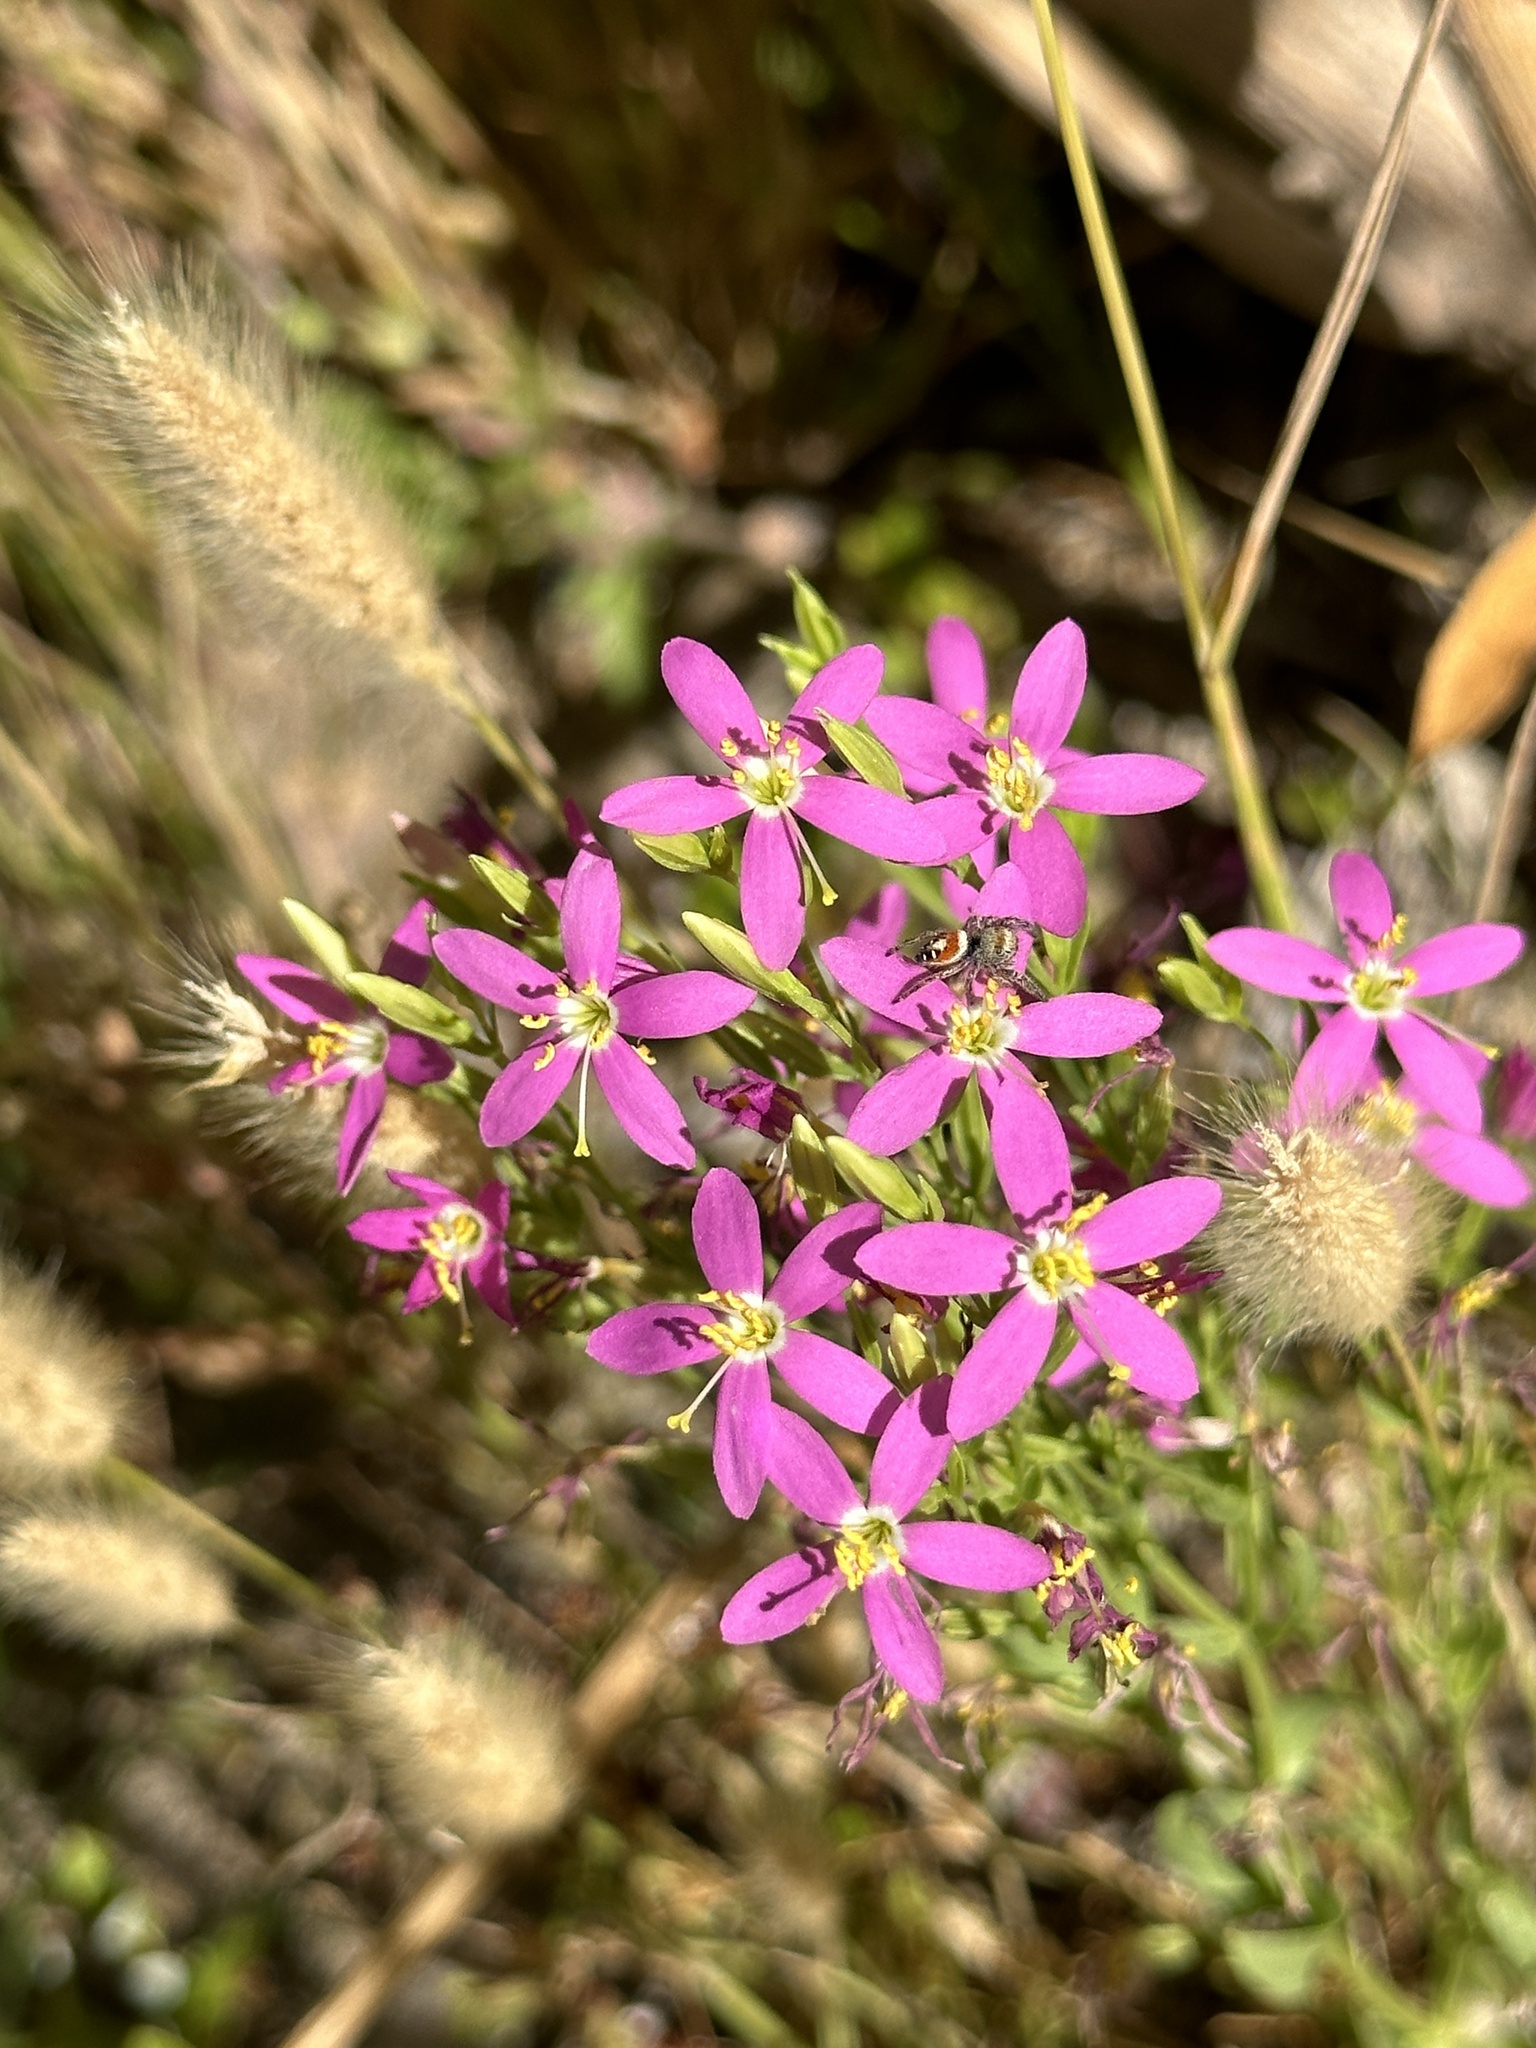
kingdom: Plantae
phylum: Tracheophyta
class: Magnoliopsida
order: Gentianales
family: Gentianaceae
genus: Zeltnera
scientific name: Zeltnera venusta
